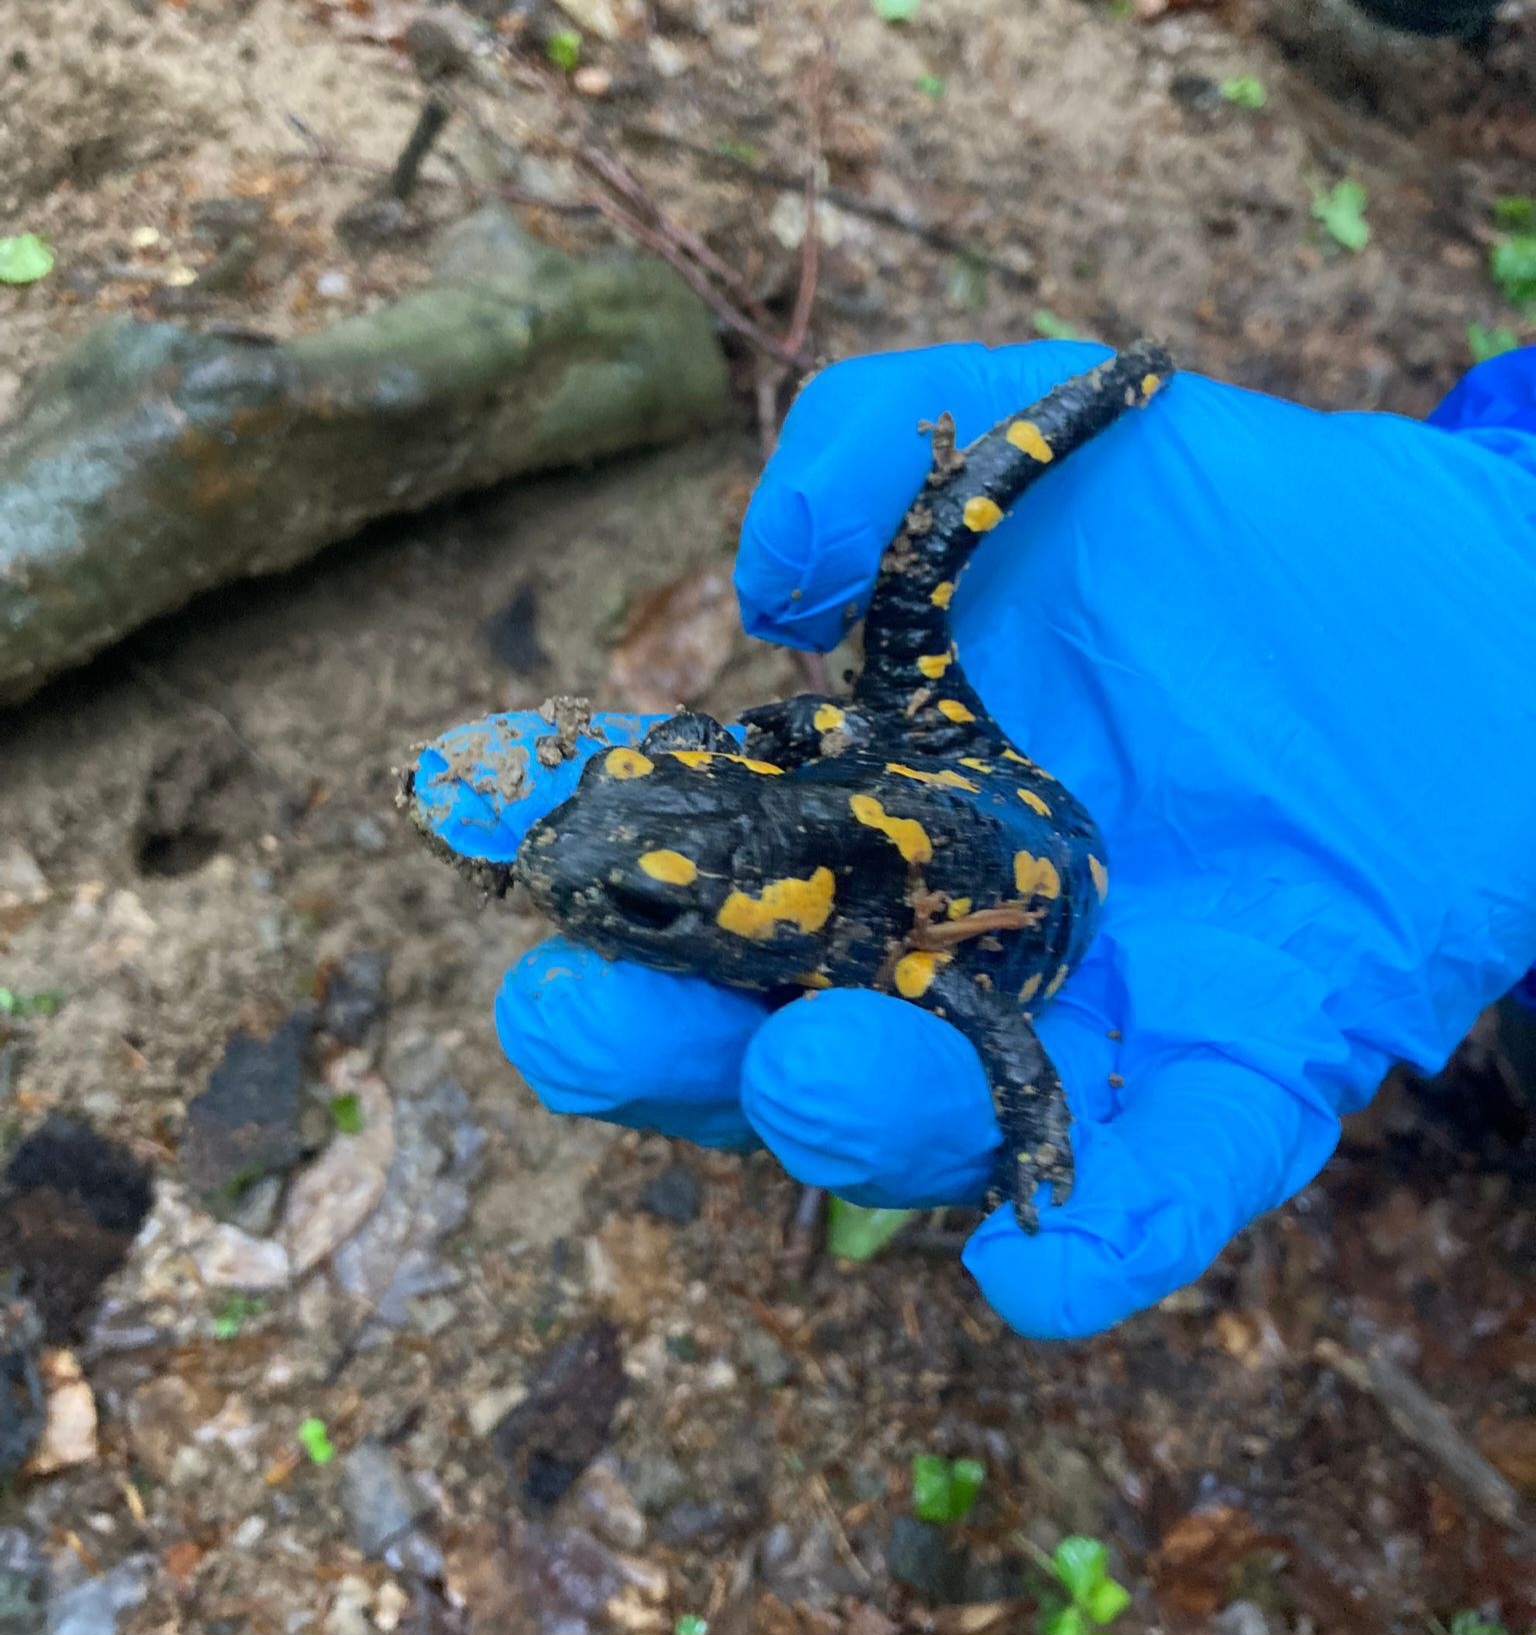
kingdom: Animalia
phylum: Chordata
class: Amphibia
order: Caudata
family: Salamandridae
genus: Salamandra
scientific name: Salamandra salamandra
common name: Fire salamander
